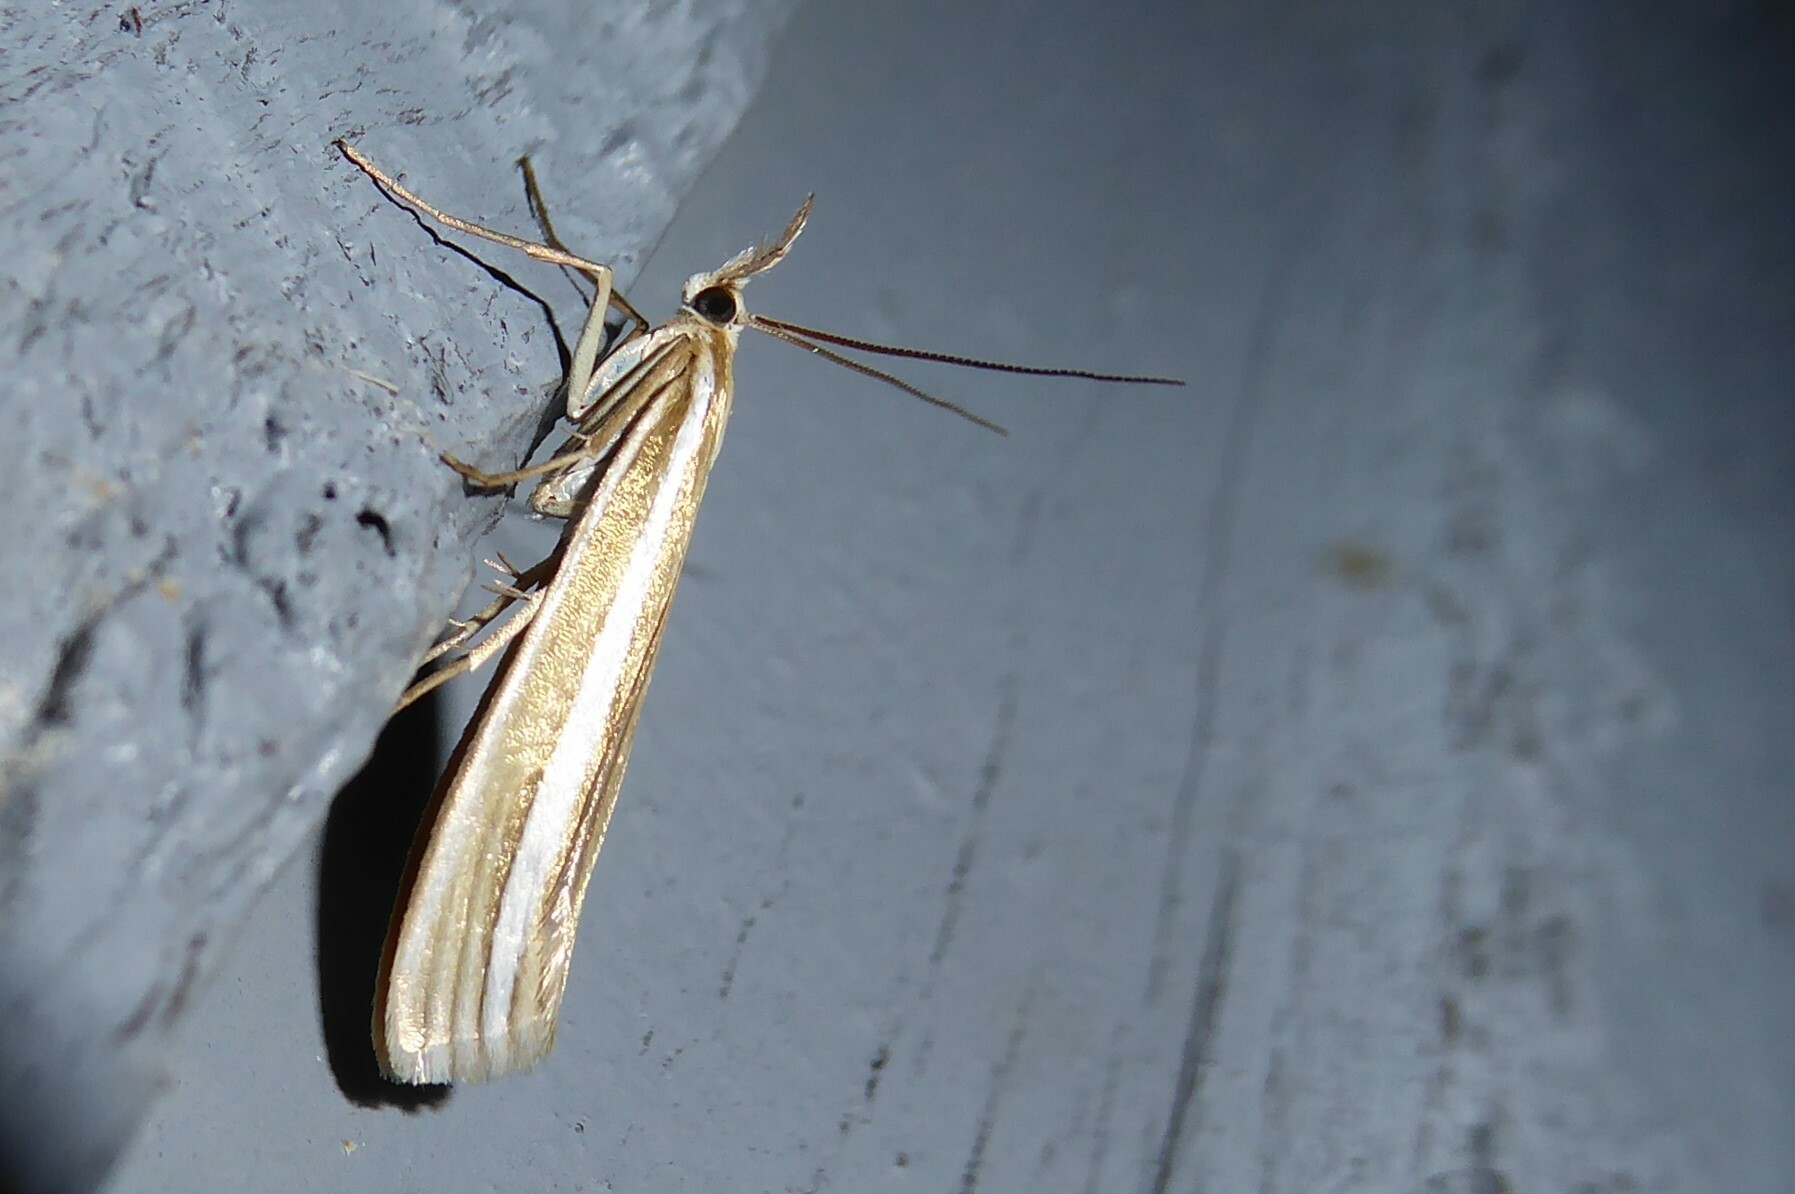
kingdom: Animalia
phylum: Arthropoda
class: Insecta
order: Lepidoptera
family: Crambidae
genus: Orocrambus
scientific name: Orocrambus ordishi
